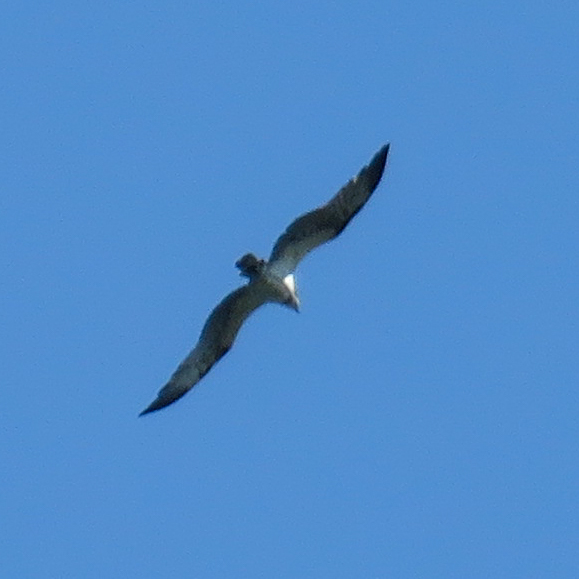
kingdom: Animalia
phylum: Chordata
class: Aves
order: Accipitriformes
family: Pandionidae
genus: Pandion
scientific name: Pandion haliaetus
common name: Osprey
